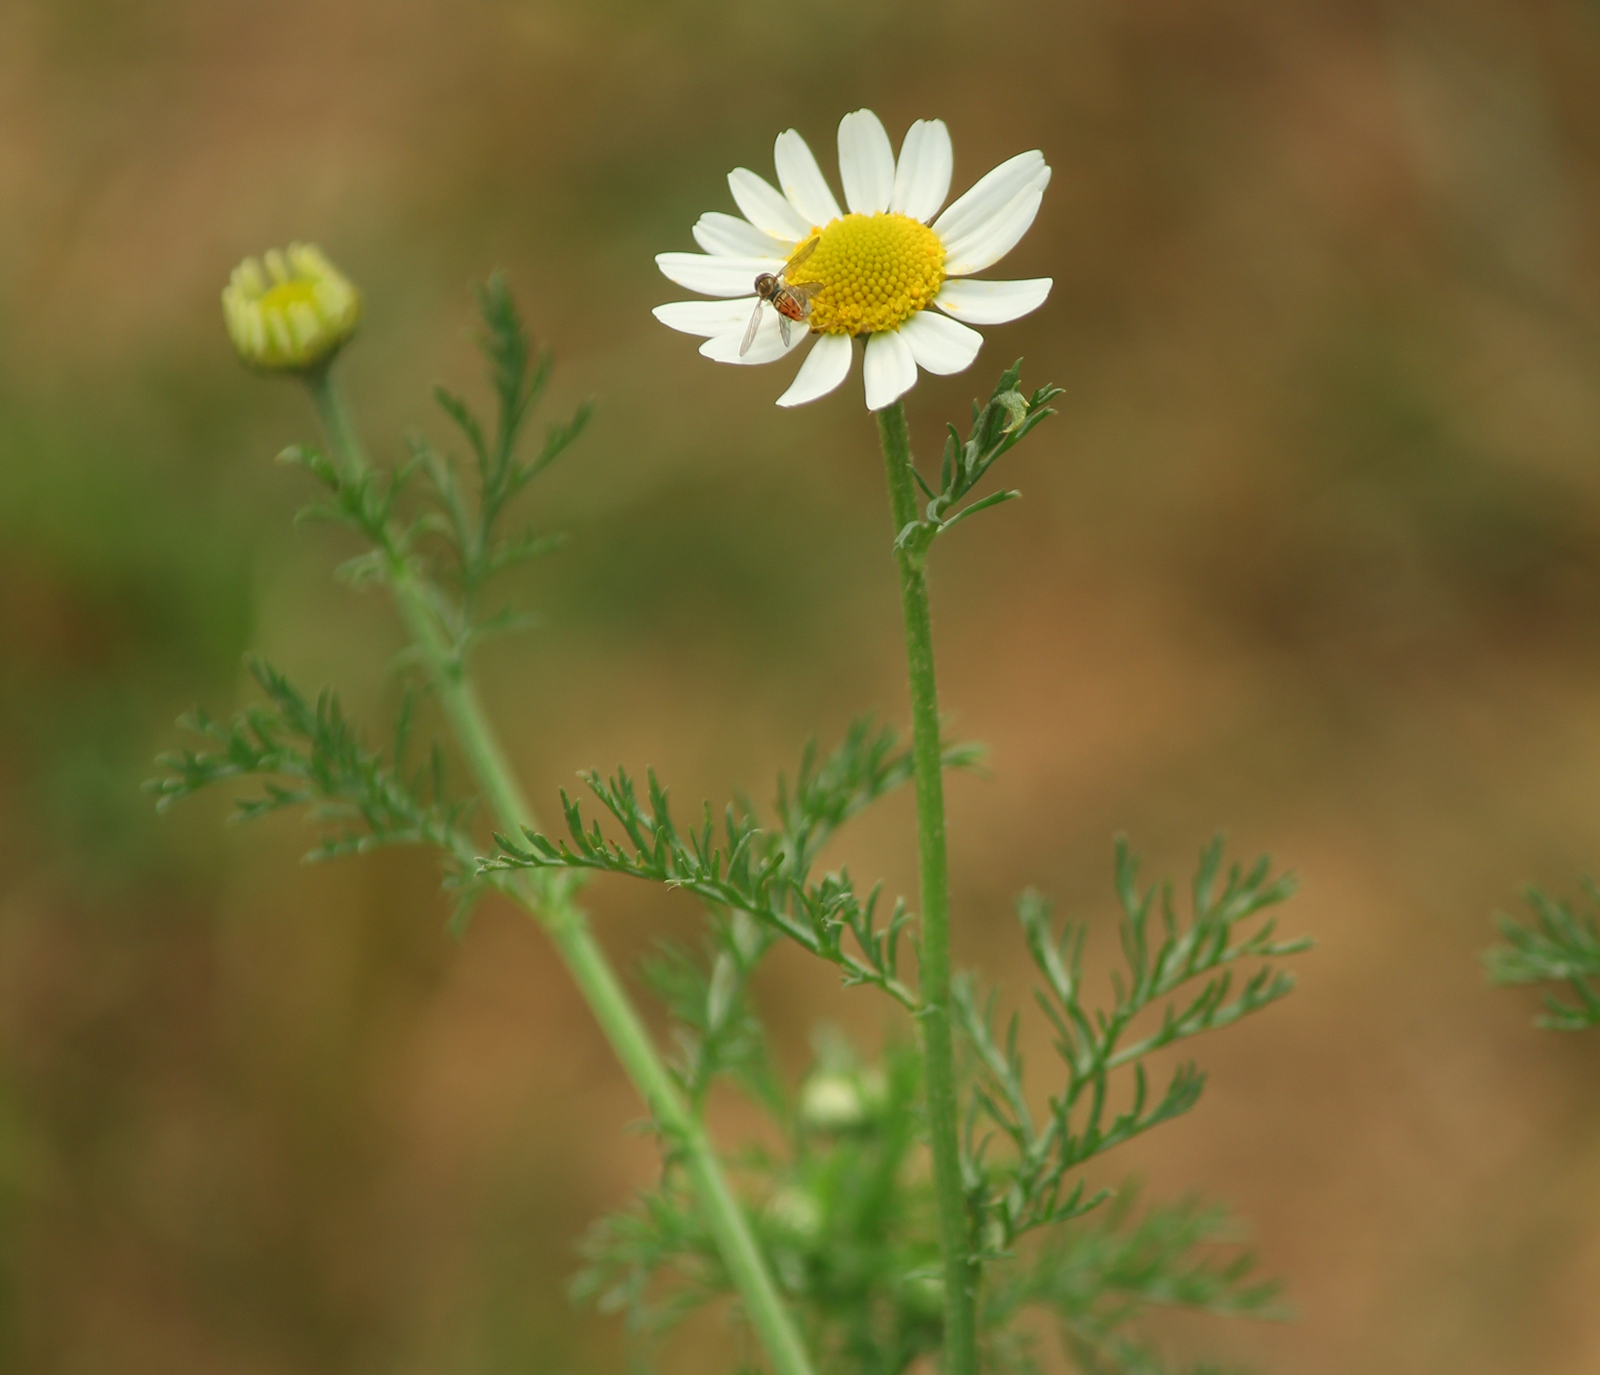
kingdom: Plantae
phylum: Tracheophyta
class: Magnoliopsida
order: Asterales
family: Asteraceae
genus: Anthemis
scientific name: Anthemis cotula
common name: Stinking chamomile
